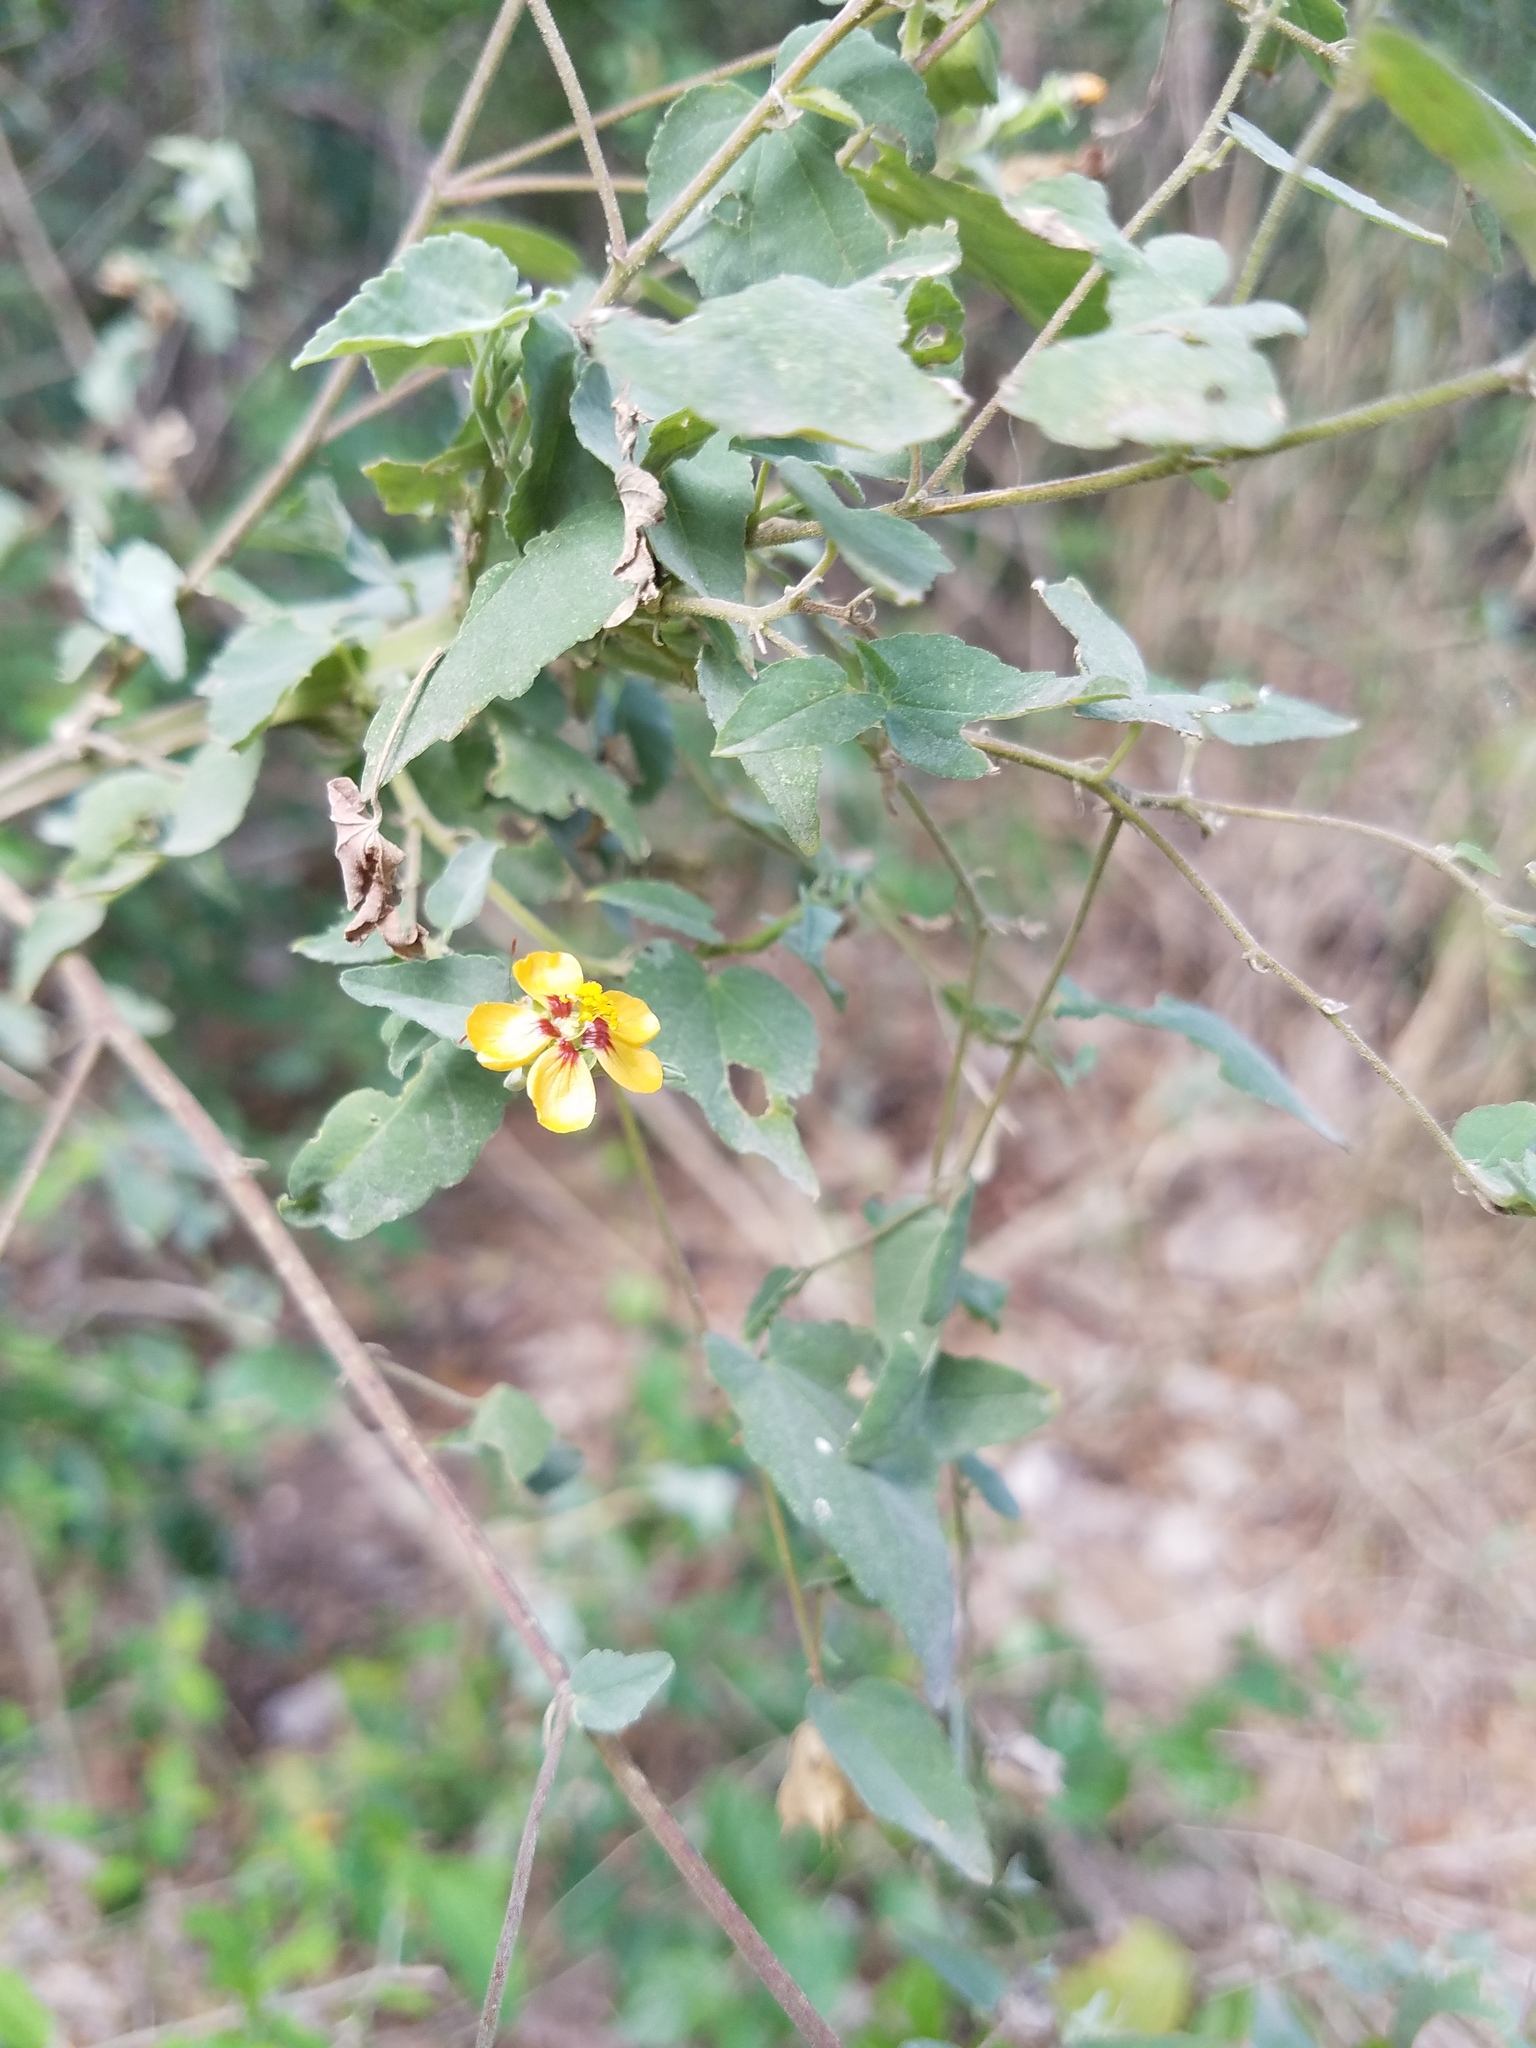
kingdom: Plantae
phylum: Tracheophyta
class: Magnoliopsida
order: Malvales
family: Malvaceae
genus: Abutilon
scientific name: Abutilon trisulcatum
